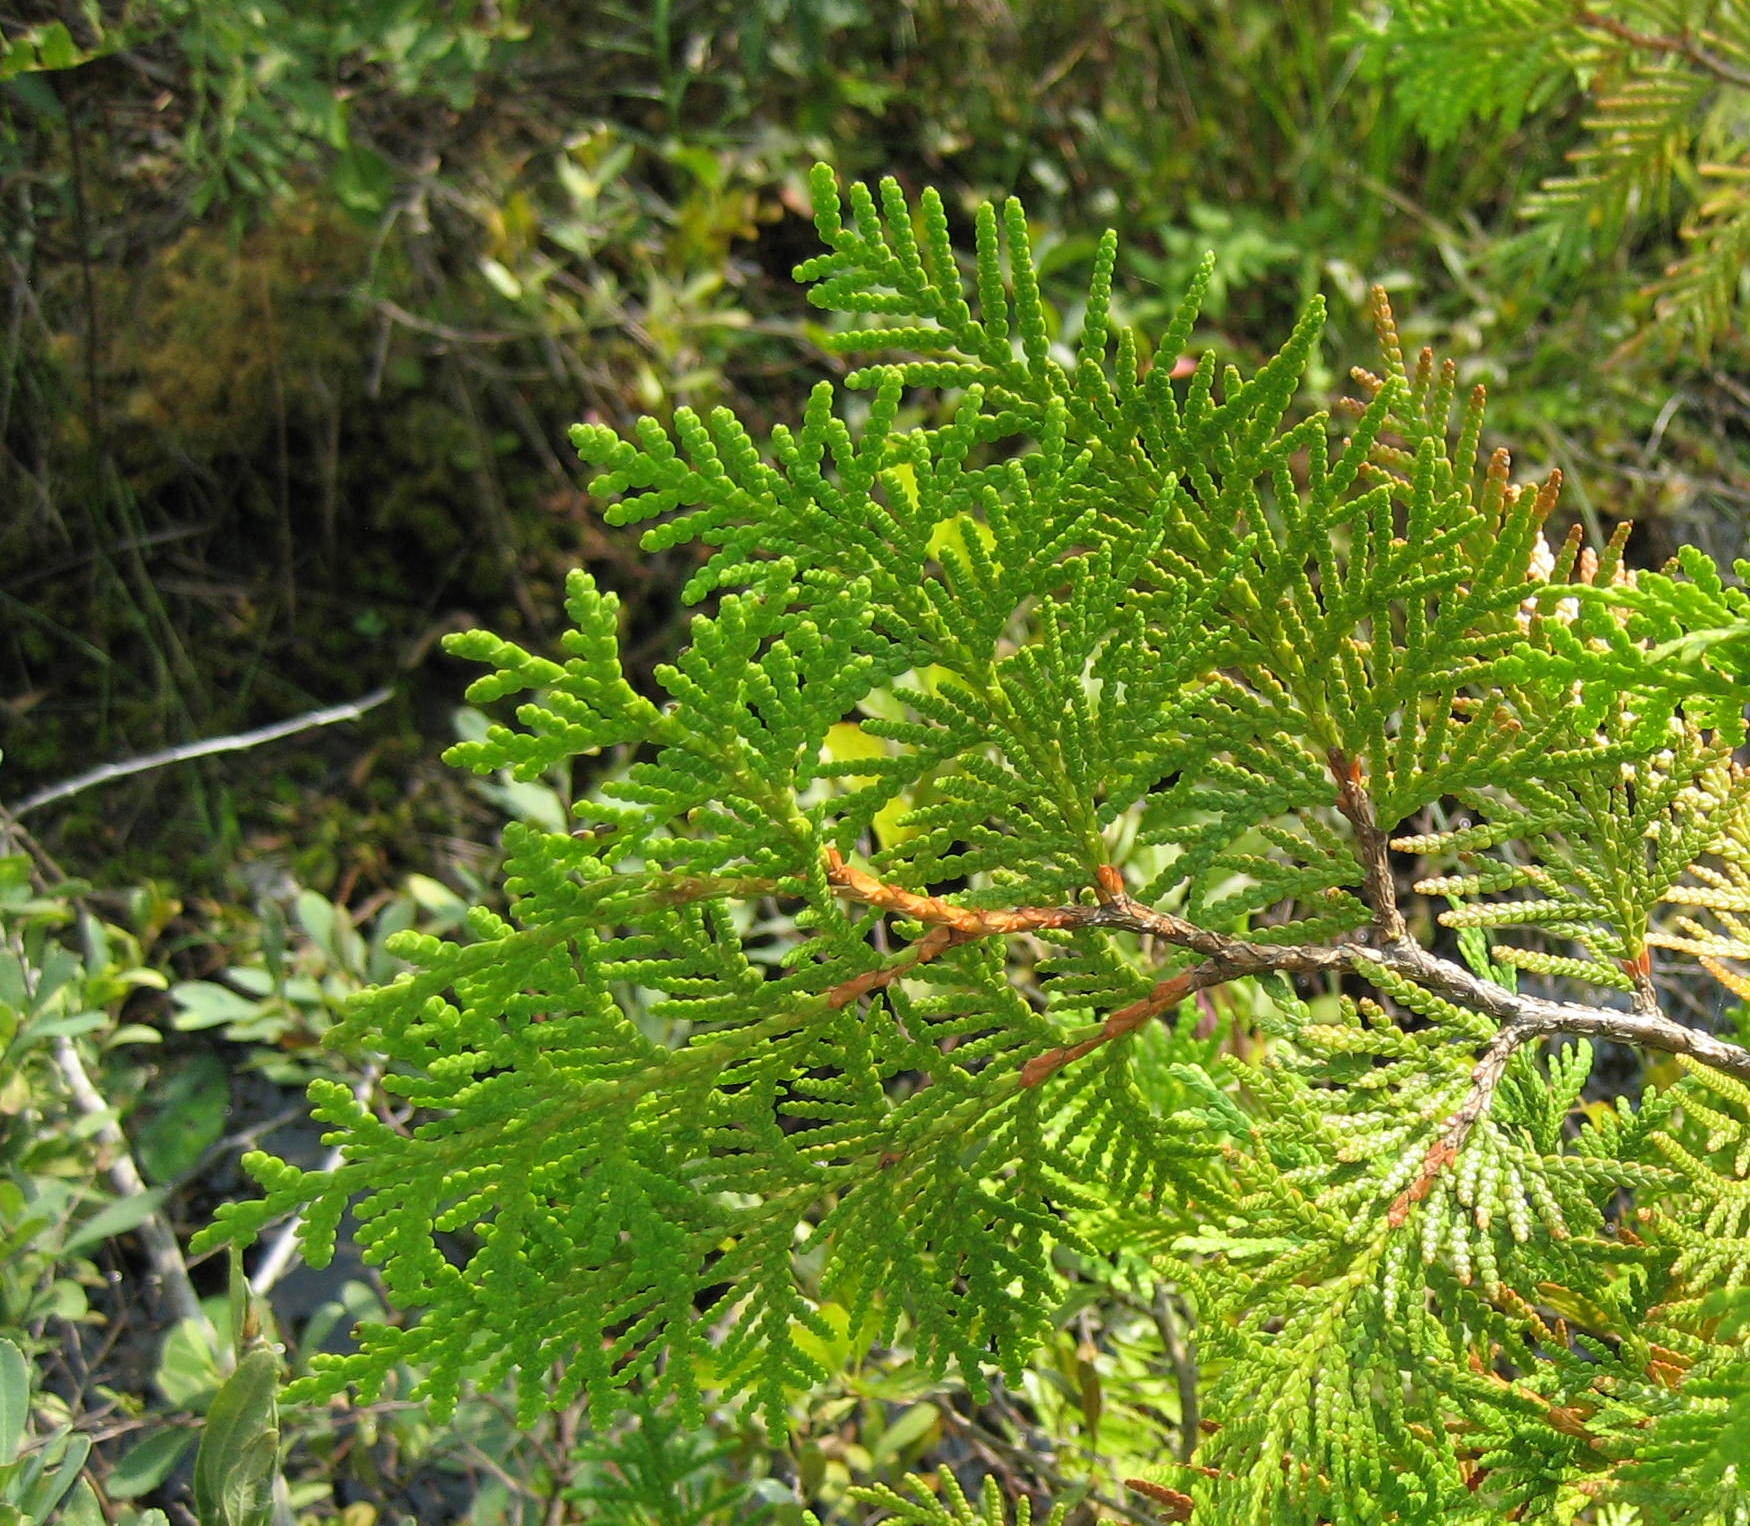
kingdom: Plantae
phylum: Tracheophyta
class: Pinopsida
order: Pinales
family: Cupressaceae
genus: Thuja
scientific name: Thuja occidentalis
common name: Northern white-cedar
